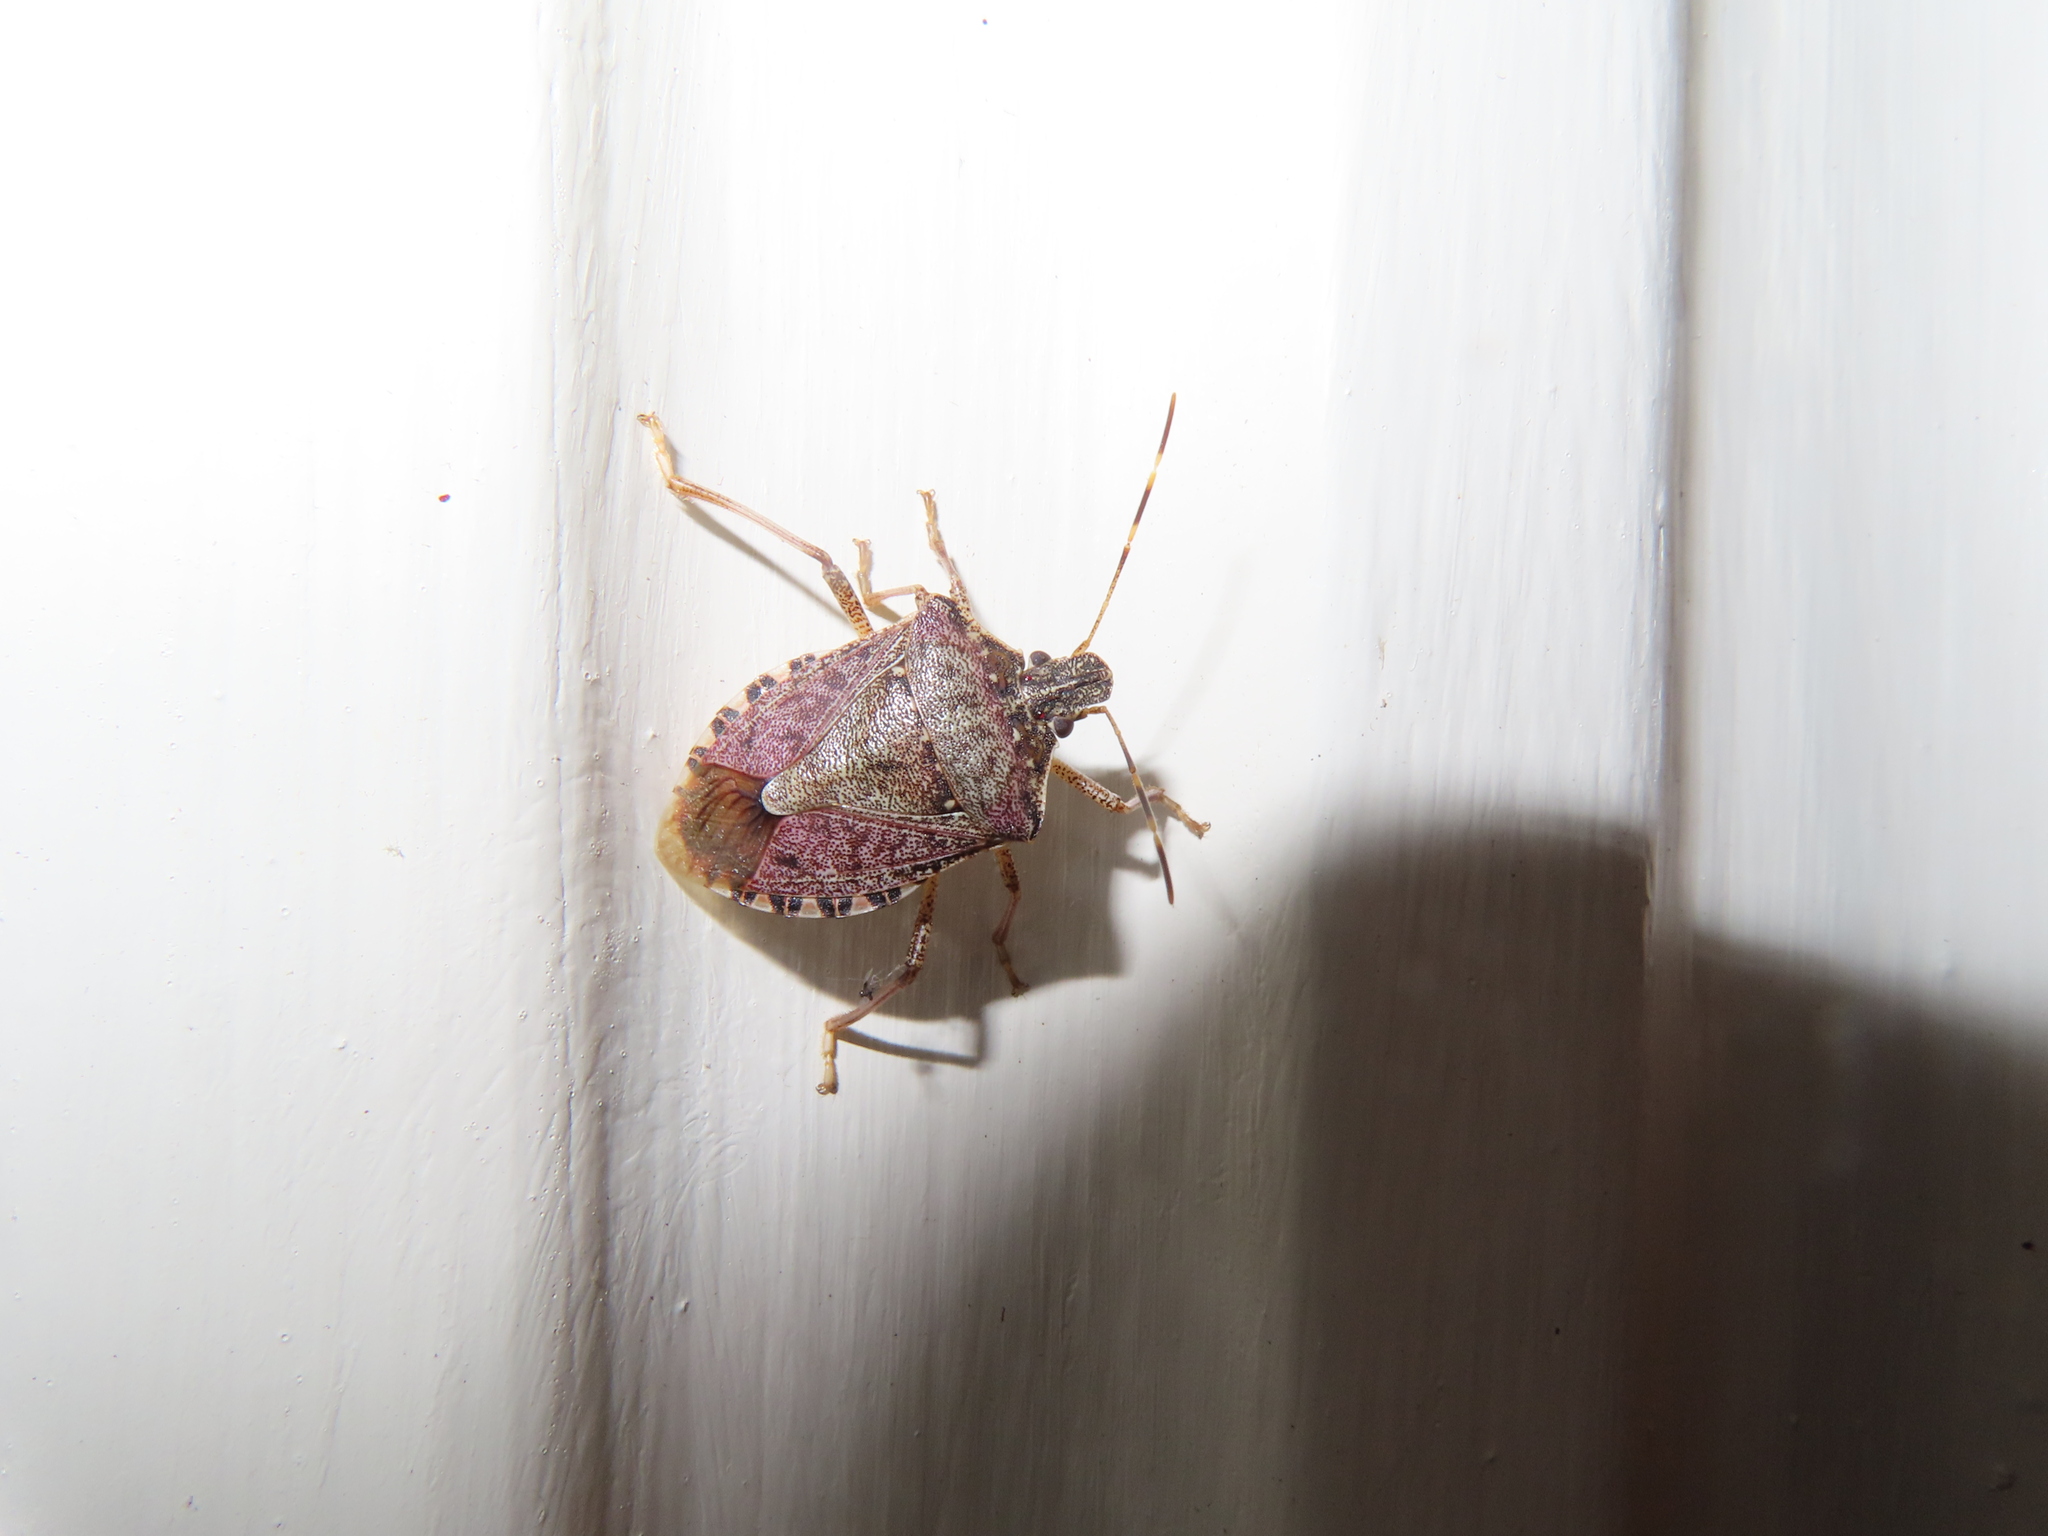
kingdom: Animalia
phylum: Arthropoda
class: Insecta
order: Hemiptera
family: Pentatomidae
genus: Halyomorpha
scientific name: Halyomorpha halys
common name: Brown marmorated stink bug
